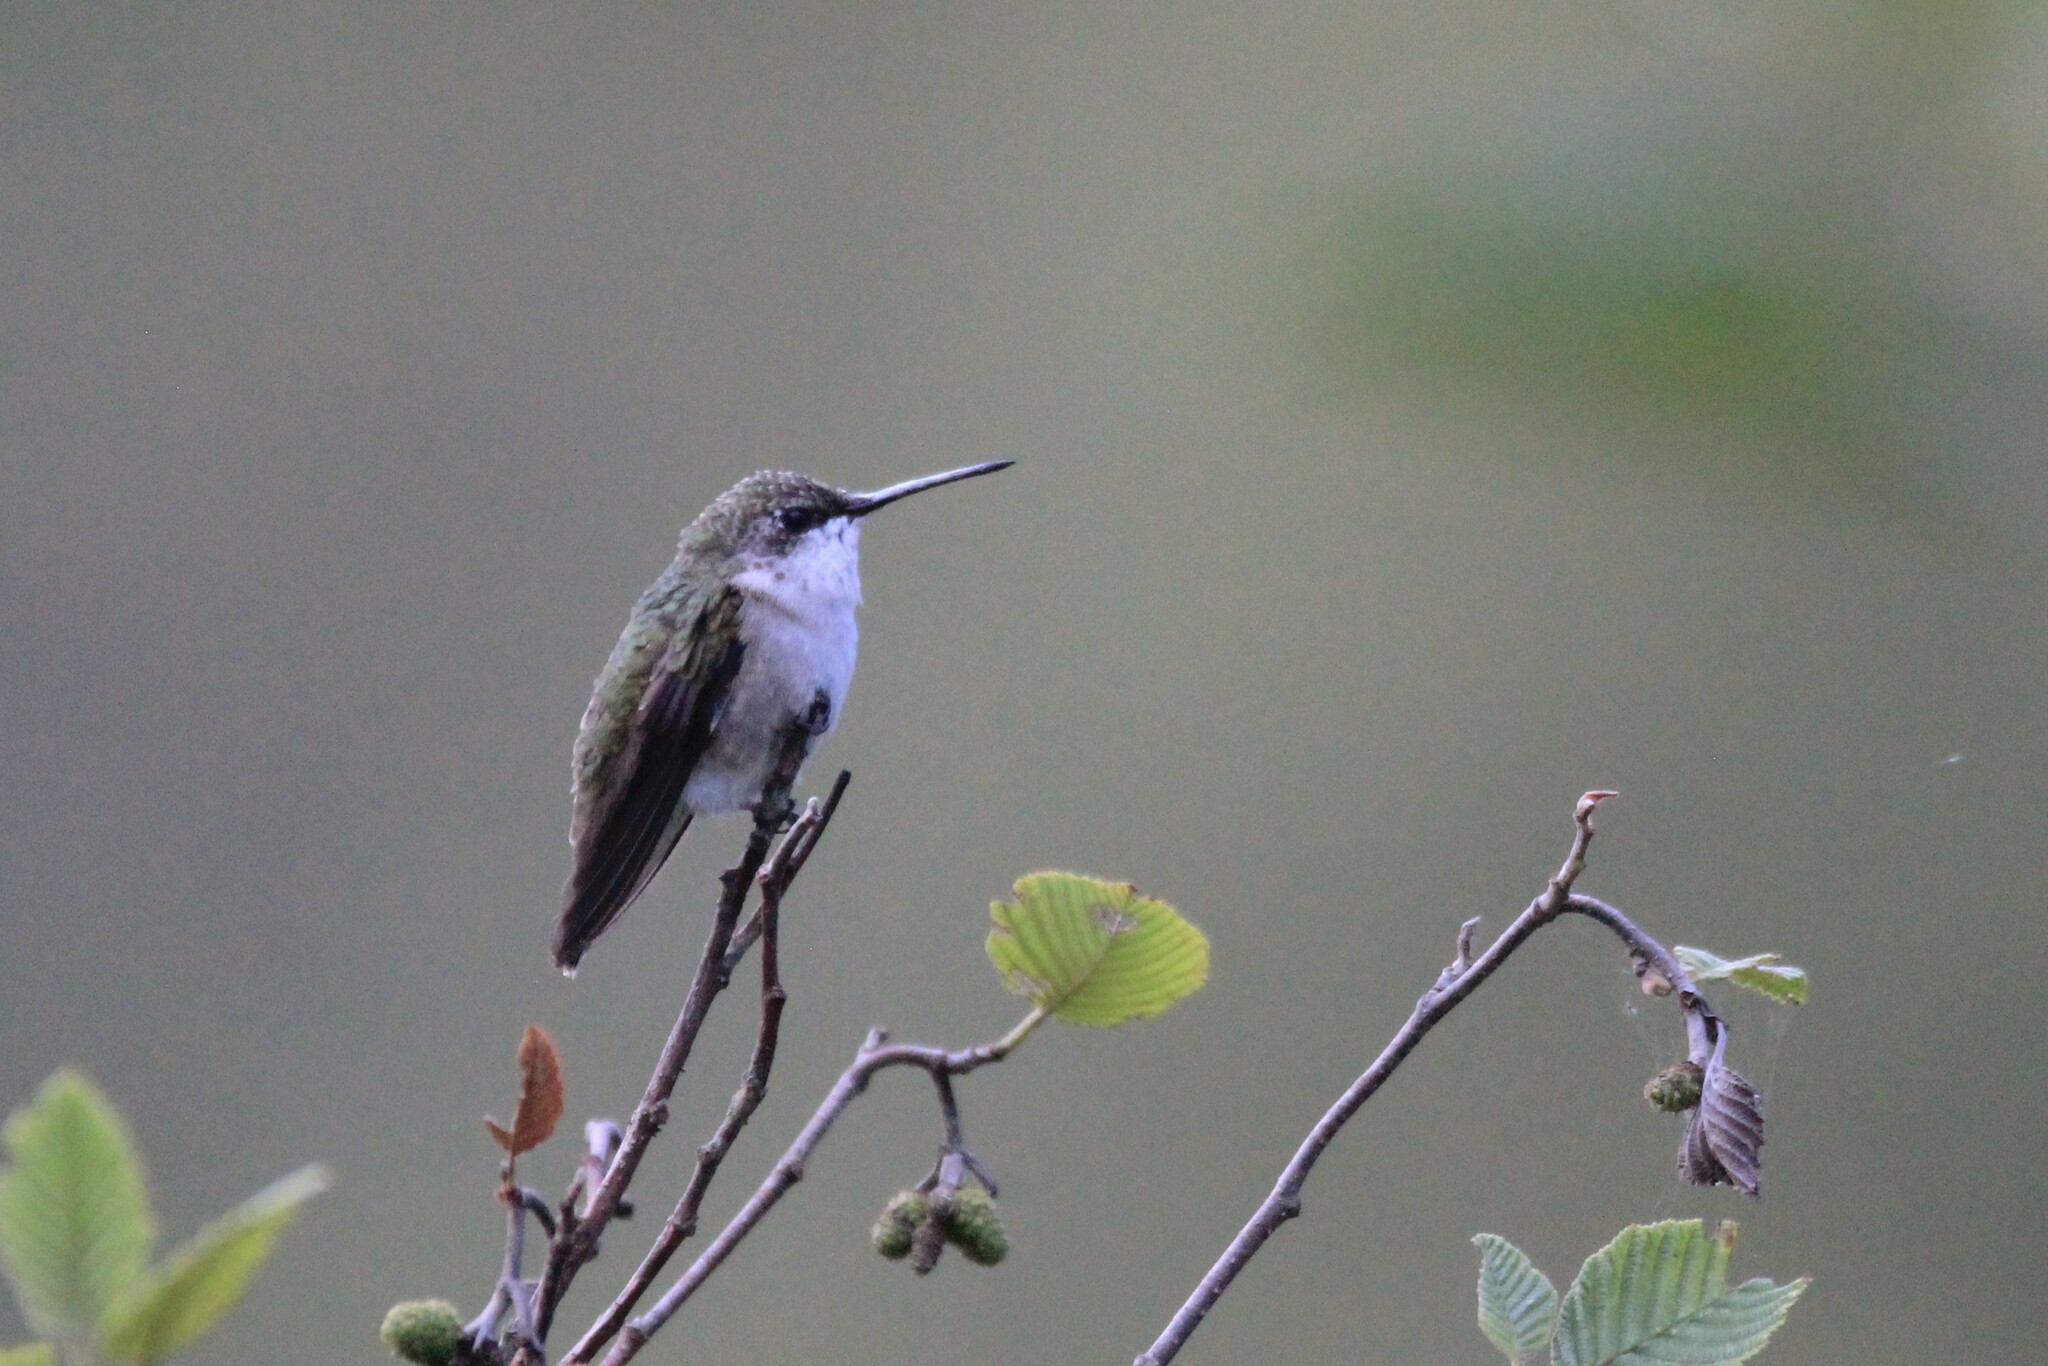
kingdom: Animalia
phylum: Chordata
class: Aves
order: Apodiformes
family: Trochilidae
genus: Archilochus
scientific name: Archilochus colubris
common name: Ruby-throated hummingbird
